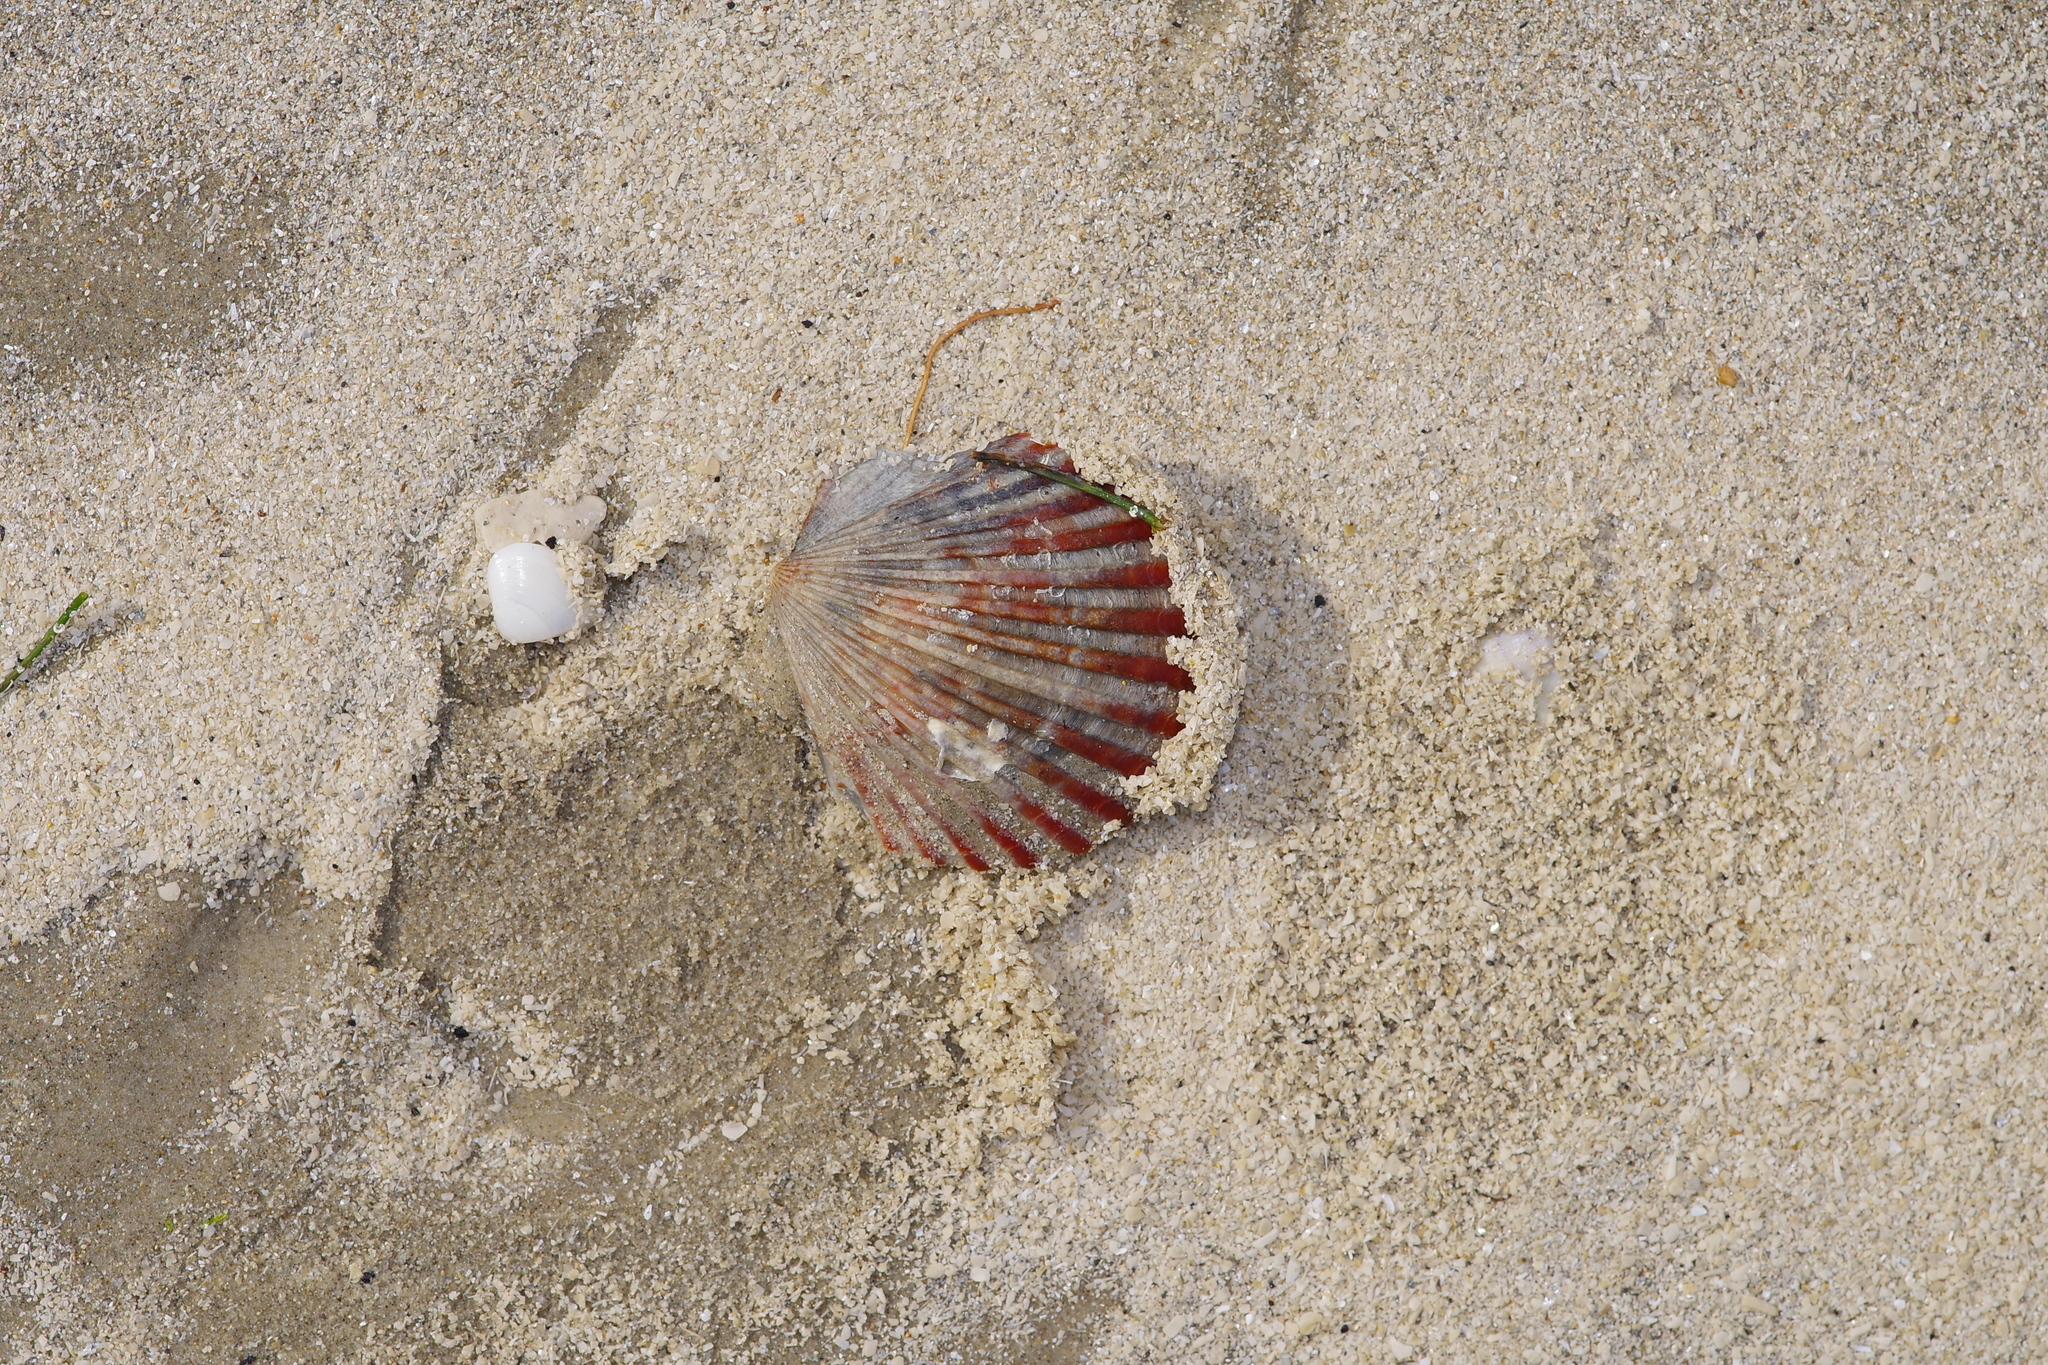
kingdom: Animalia
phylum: Mollusca
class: Bivalvia
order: Pectinida
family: Pectinidae
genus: Argopecten
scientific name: Argopecten irradians
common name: Atlantic bay scallop
